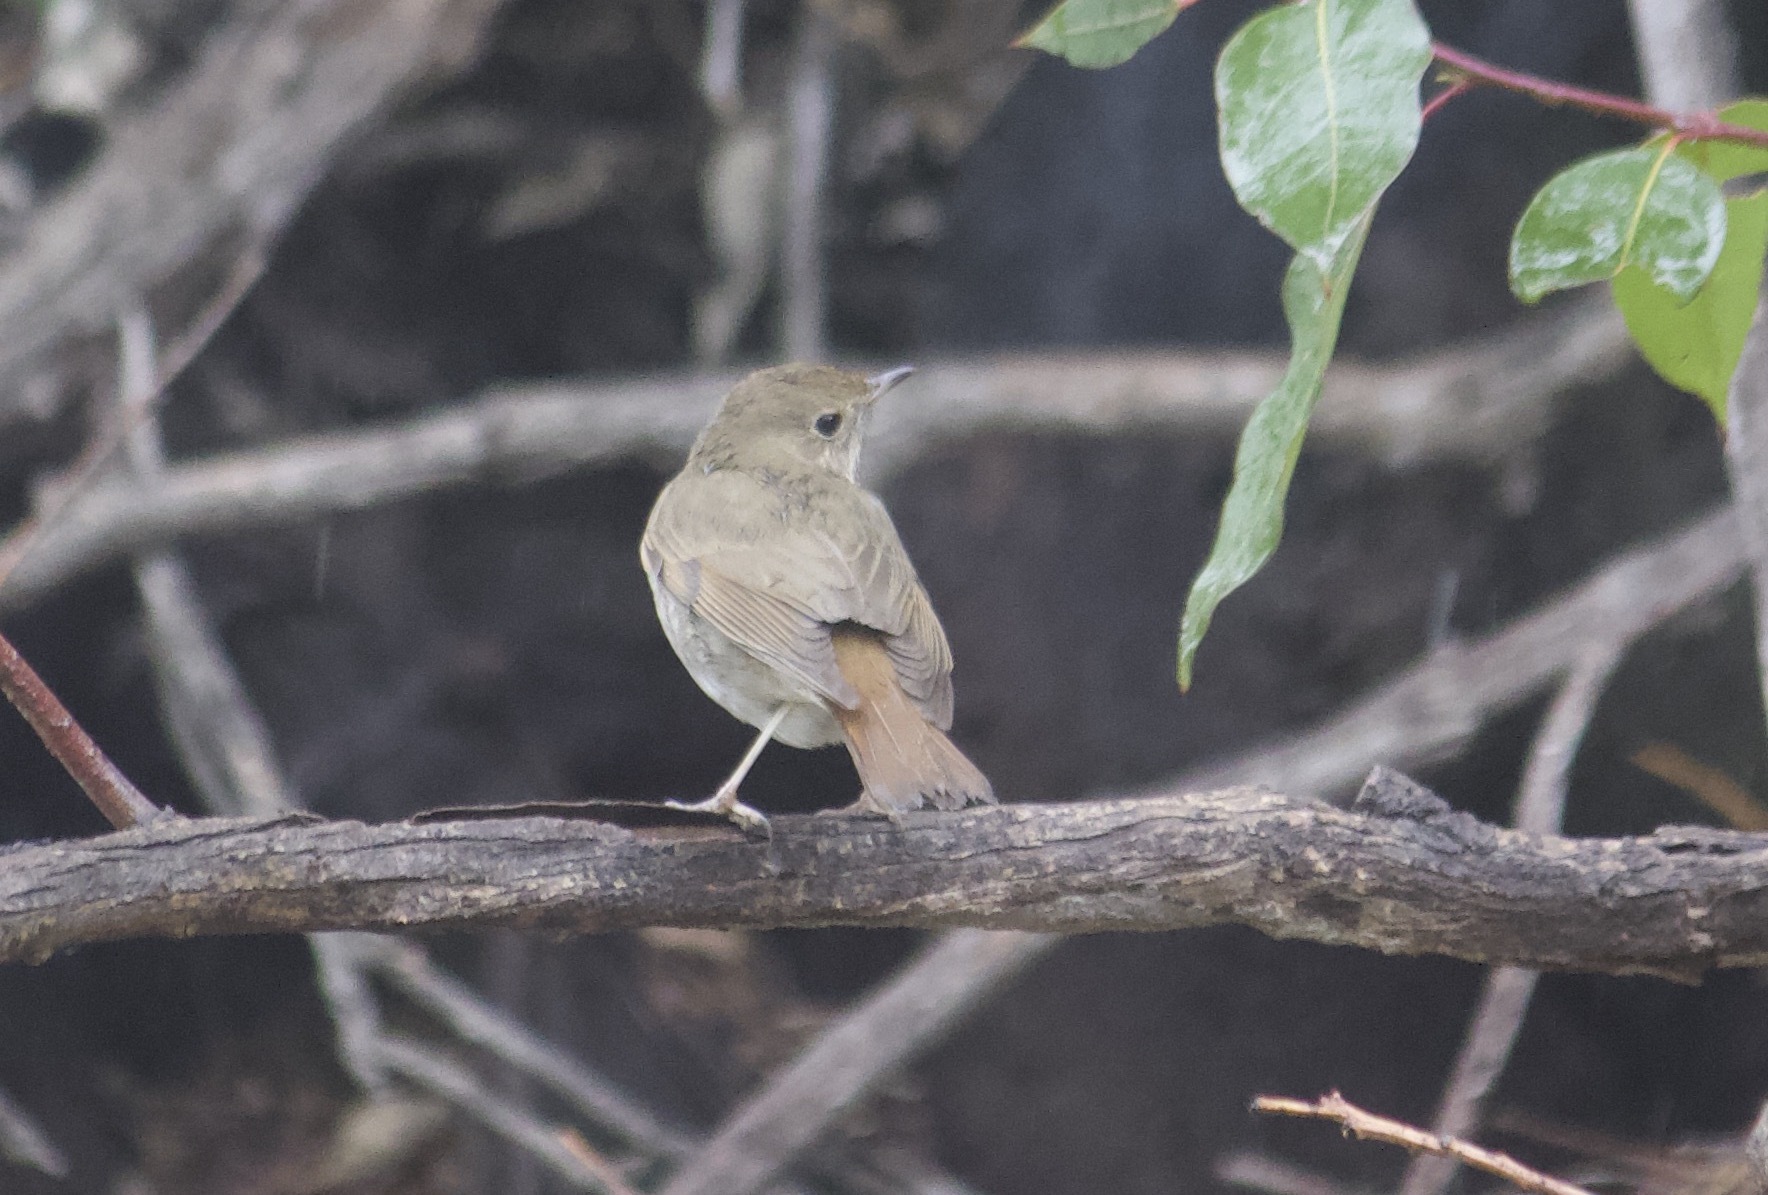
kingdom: Animalia
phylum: Chordata
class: Aves
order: Passeriformes
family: Turdidae
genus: Catharus
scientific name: Catharus guttatus
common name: Hermit thrush
